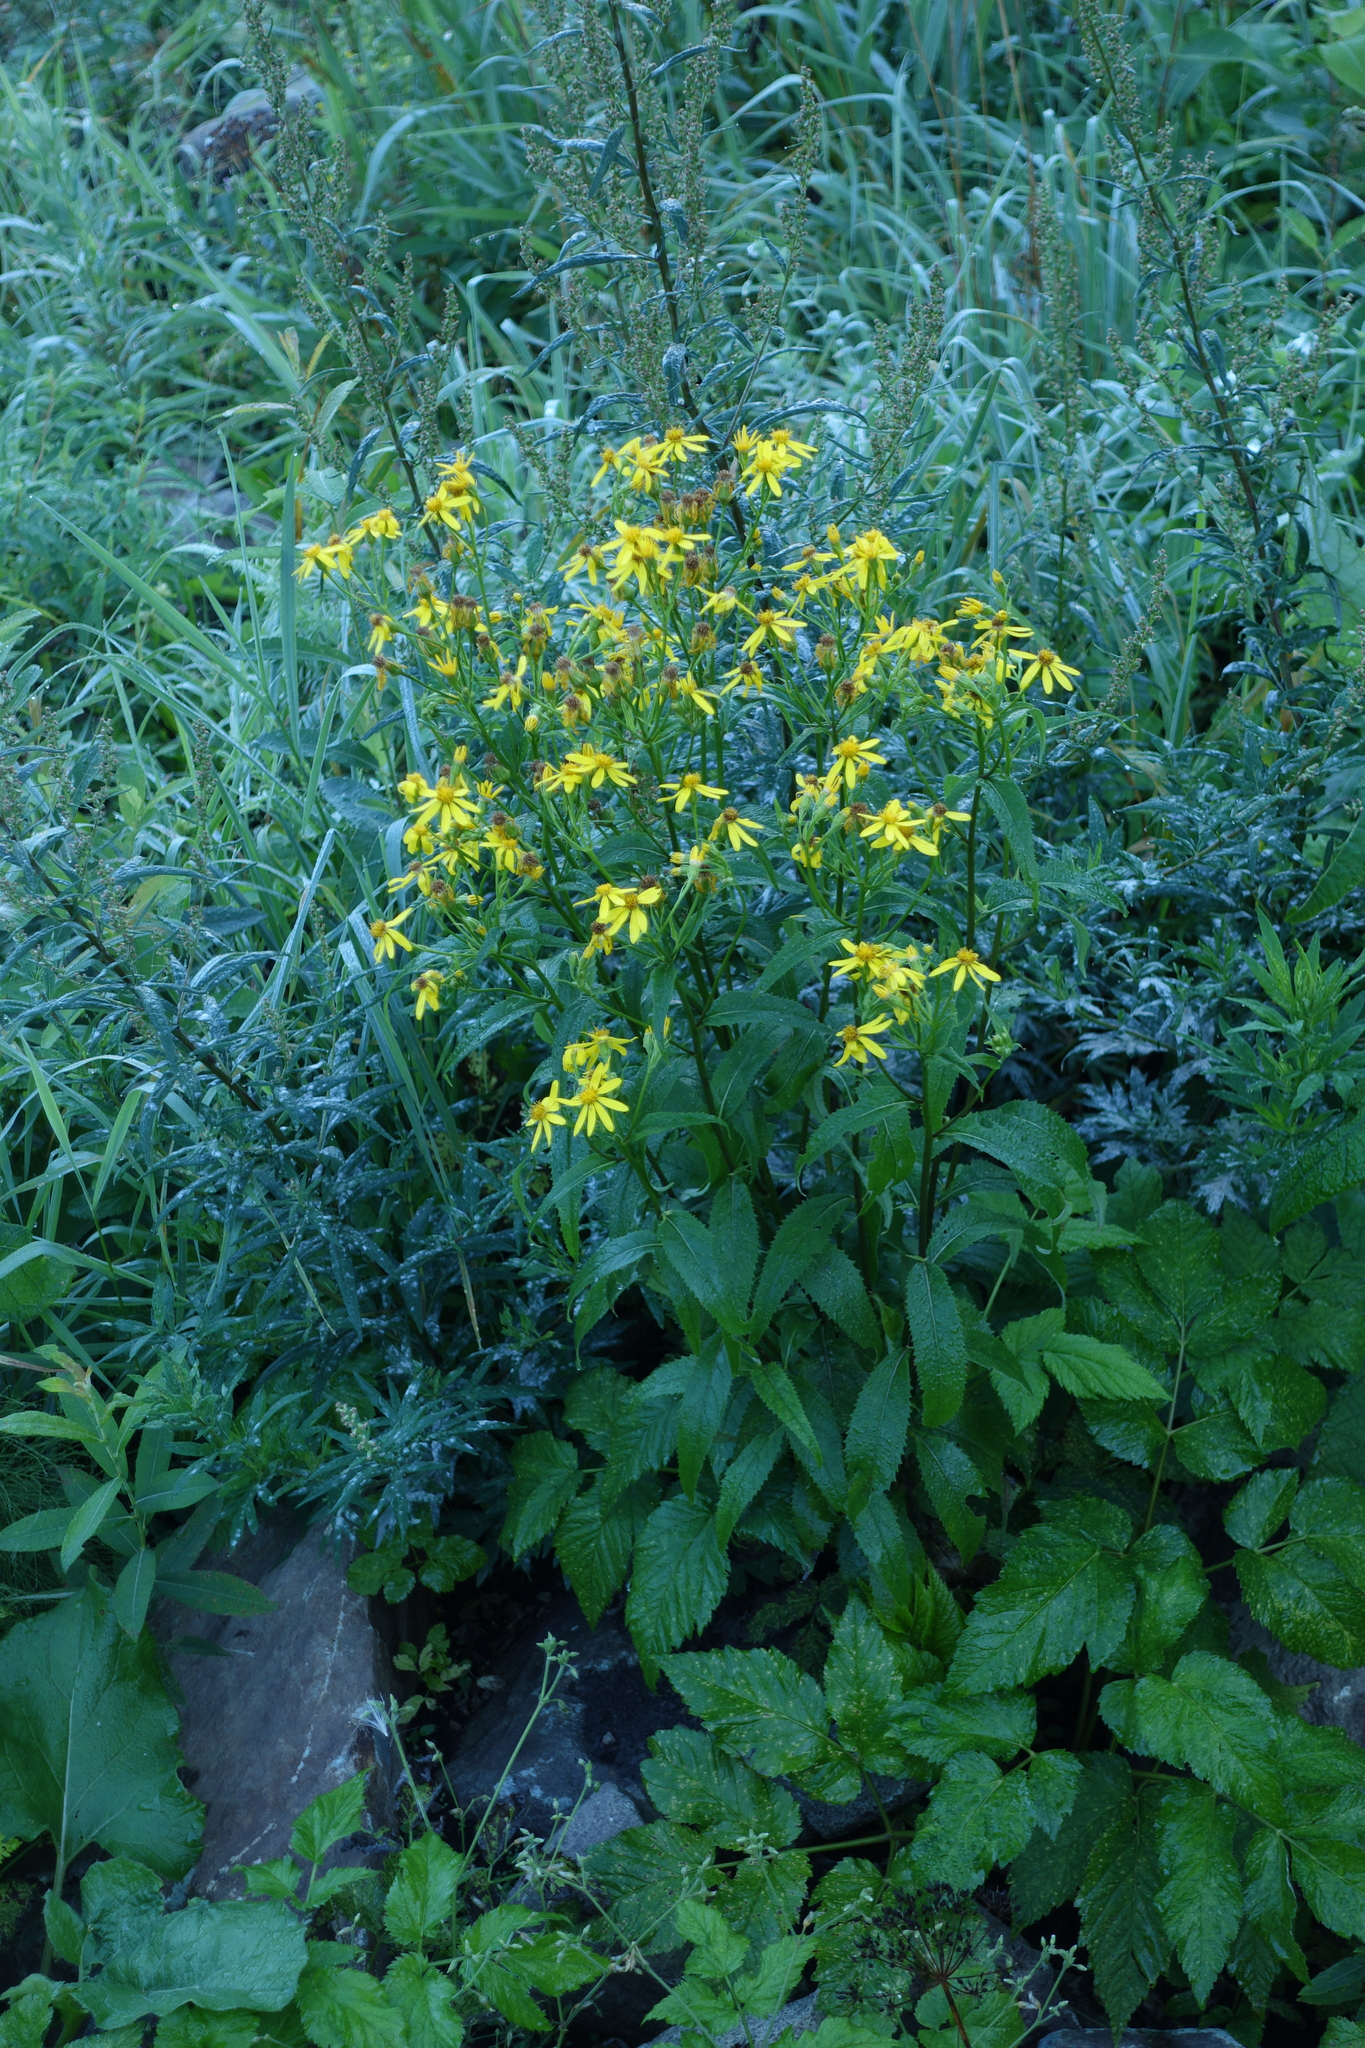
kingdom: Plantae
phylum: Tracheophyta
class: Magnoliopsida
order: Asterales
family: Asteraceae
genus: Senecio
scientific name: Senecio nemorensis
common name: Alpine ragwort
